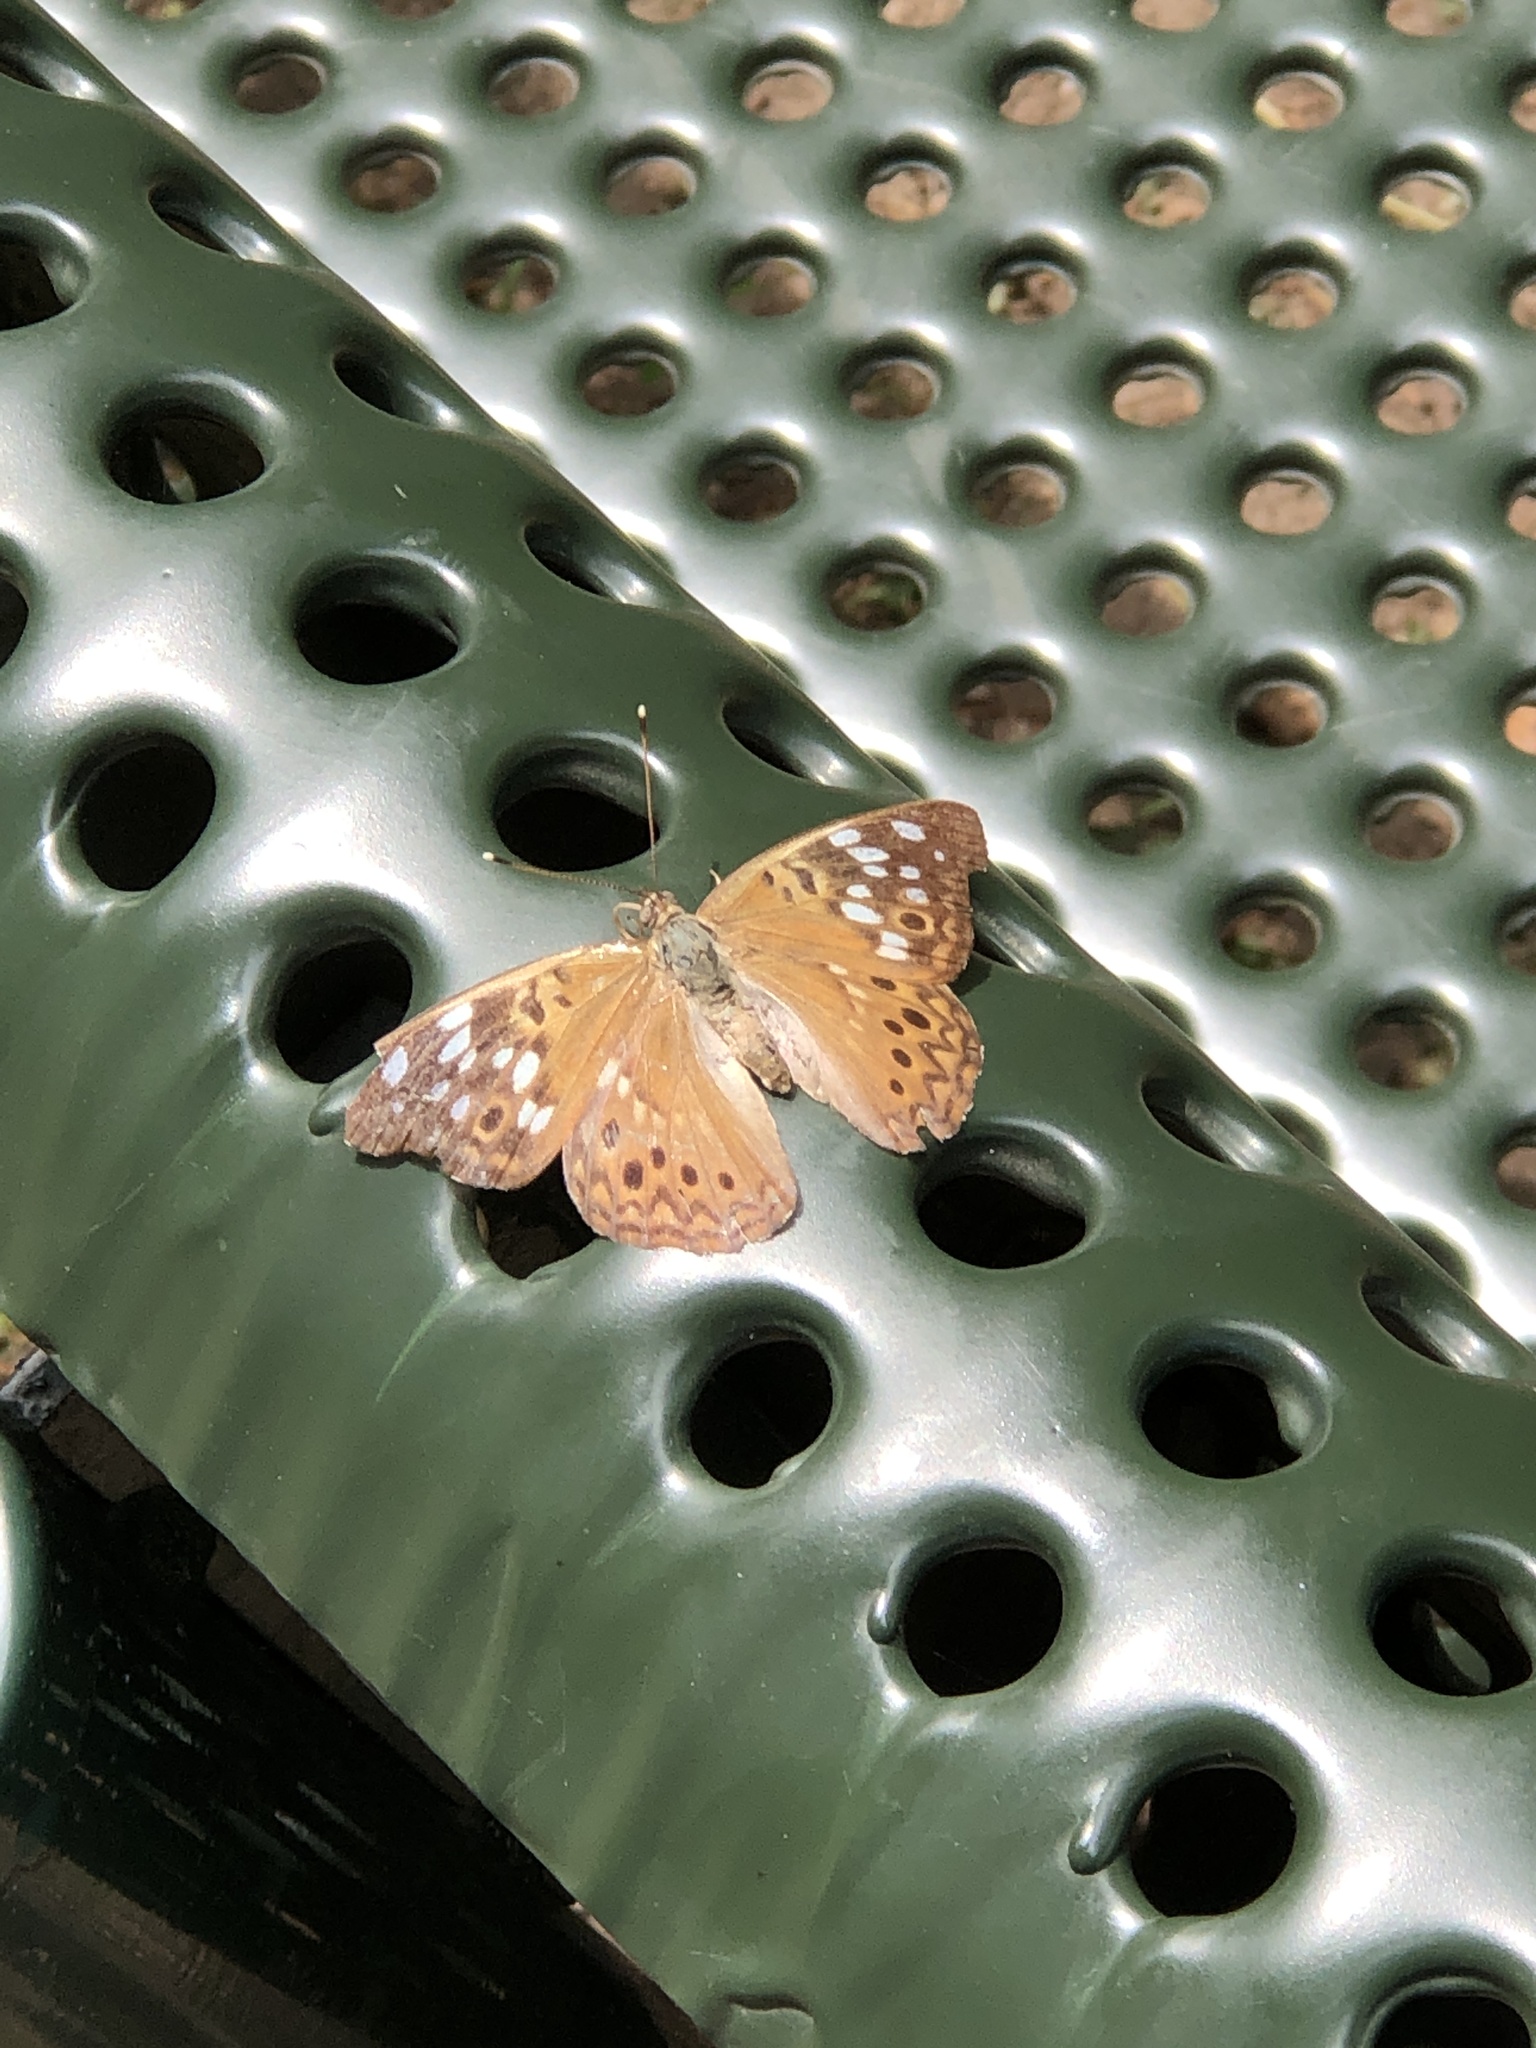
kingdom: Animalia
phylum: Arthropoda
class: Insecta
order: Lepidoptera
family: Nymphalidae
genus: Asterocampa
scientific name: Asterocampa celtis
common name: Hackberry emperor
